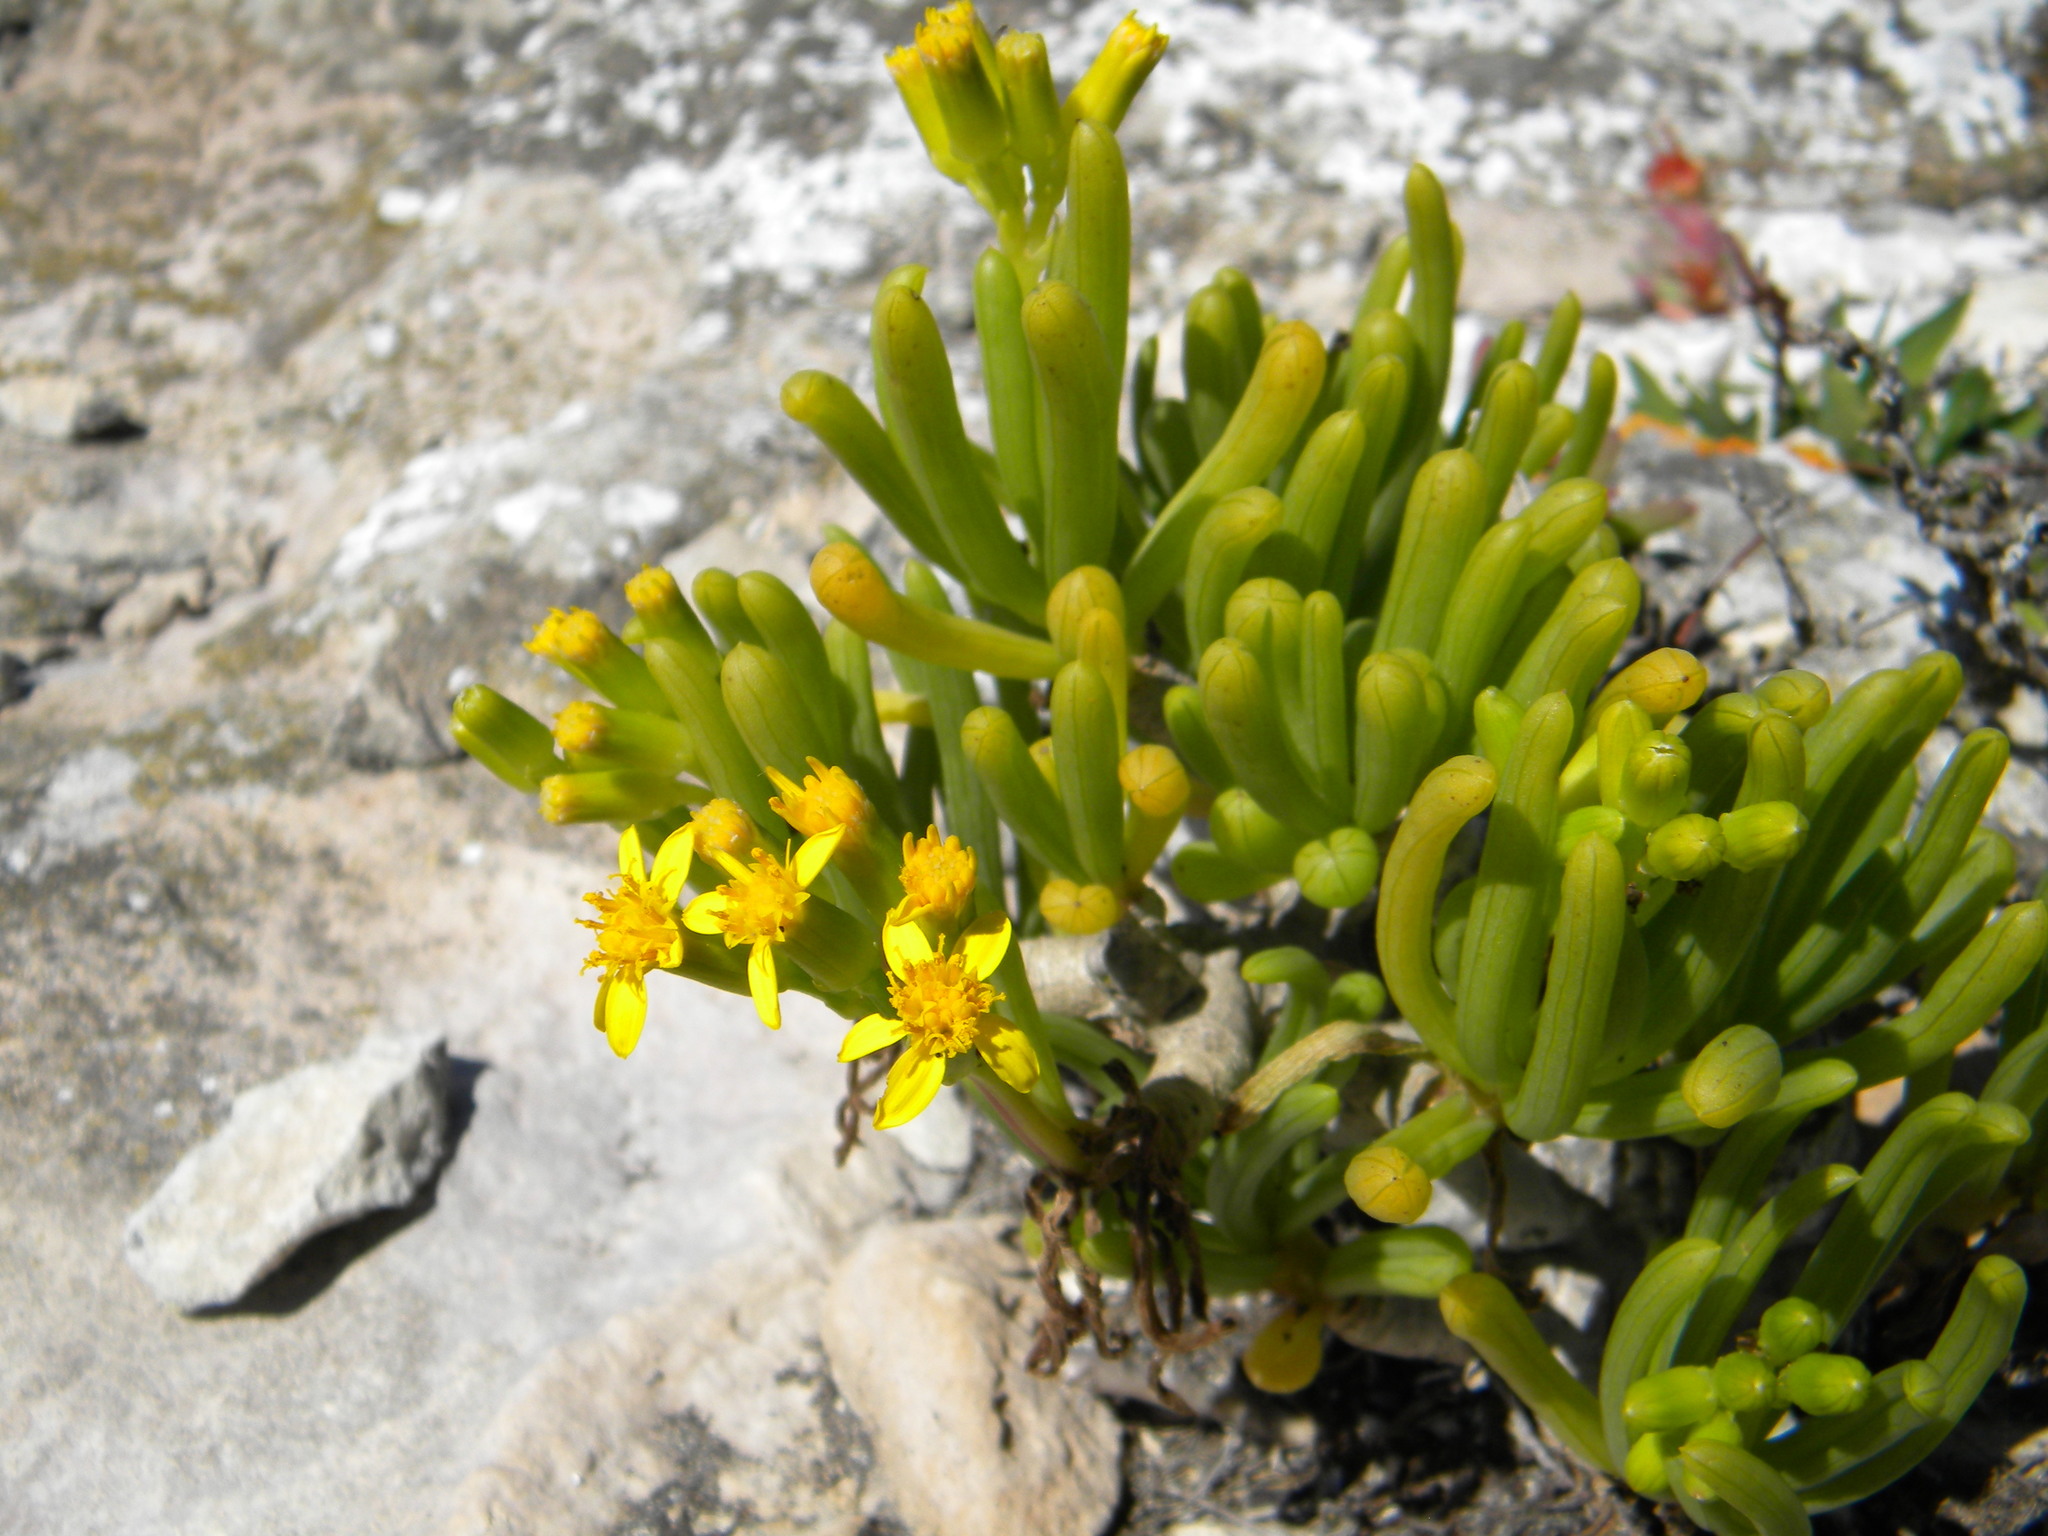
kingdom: Plantae
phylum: Tracheophyta
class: Magnoliopsida
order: Asterales
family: Asteraceae
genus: Curio
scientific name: Curio corymbifer
